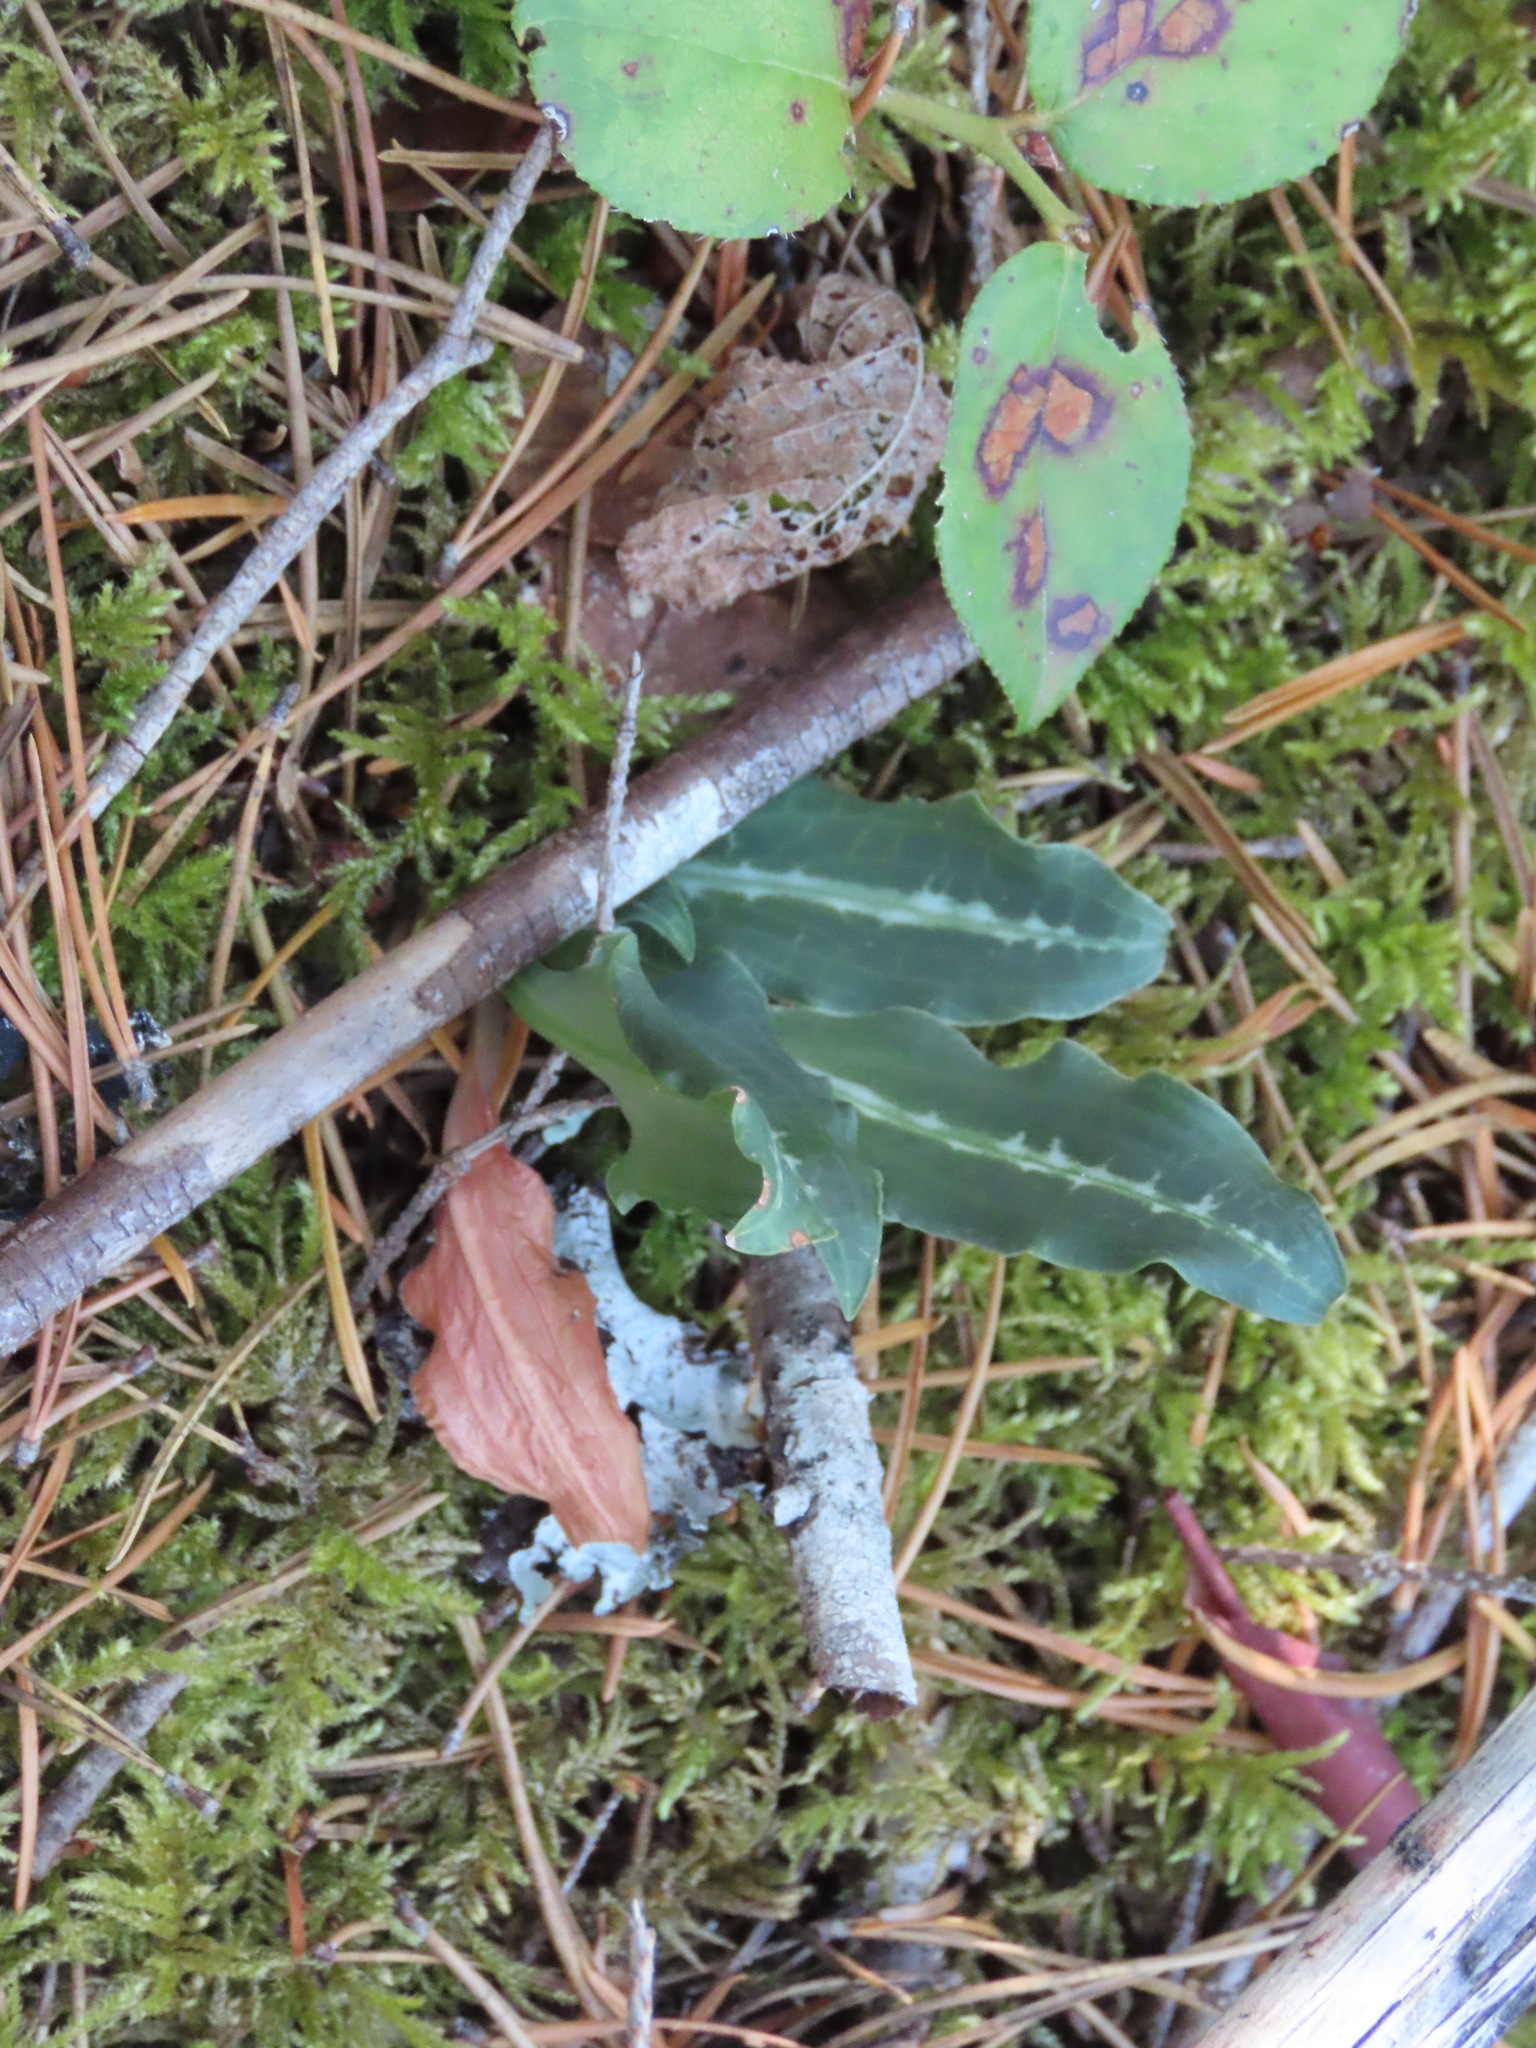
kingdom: Plantae
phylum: Tracheophyta
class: Liliopsida
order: Asparagales
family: Orchidaceae
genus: Goodyera
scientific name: Goodyera oblongifolia
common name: Giant rattlesnake-plantain
